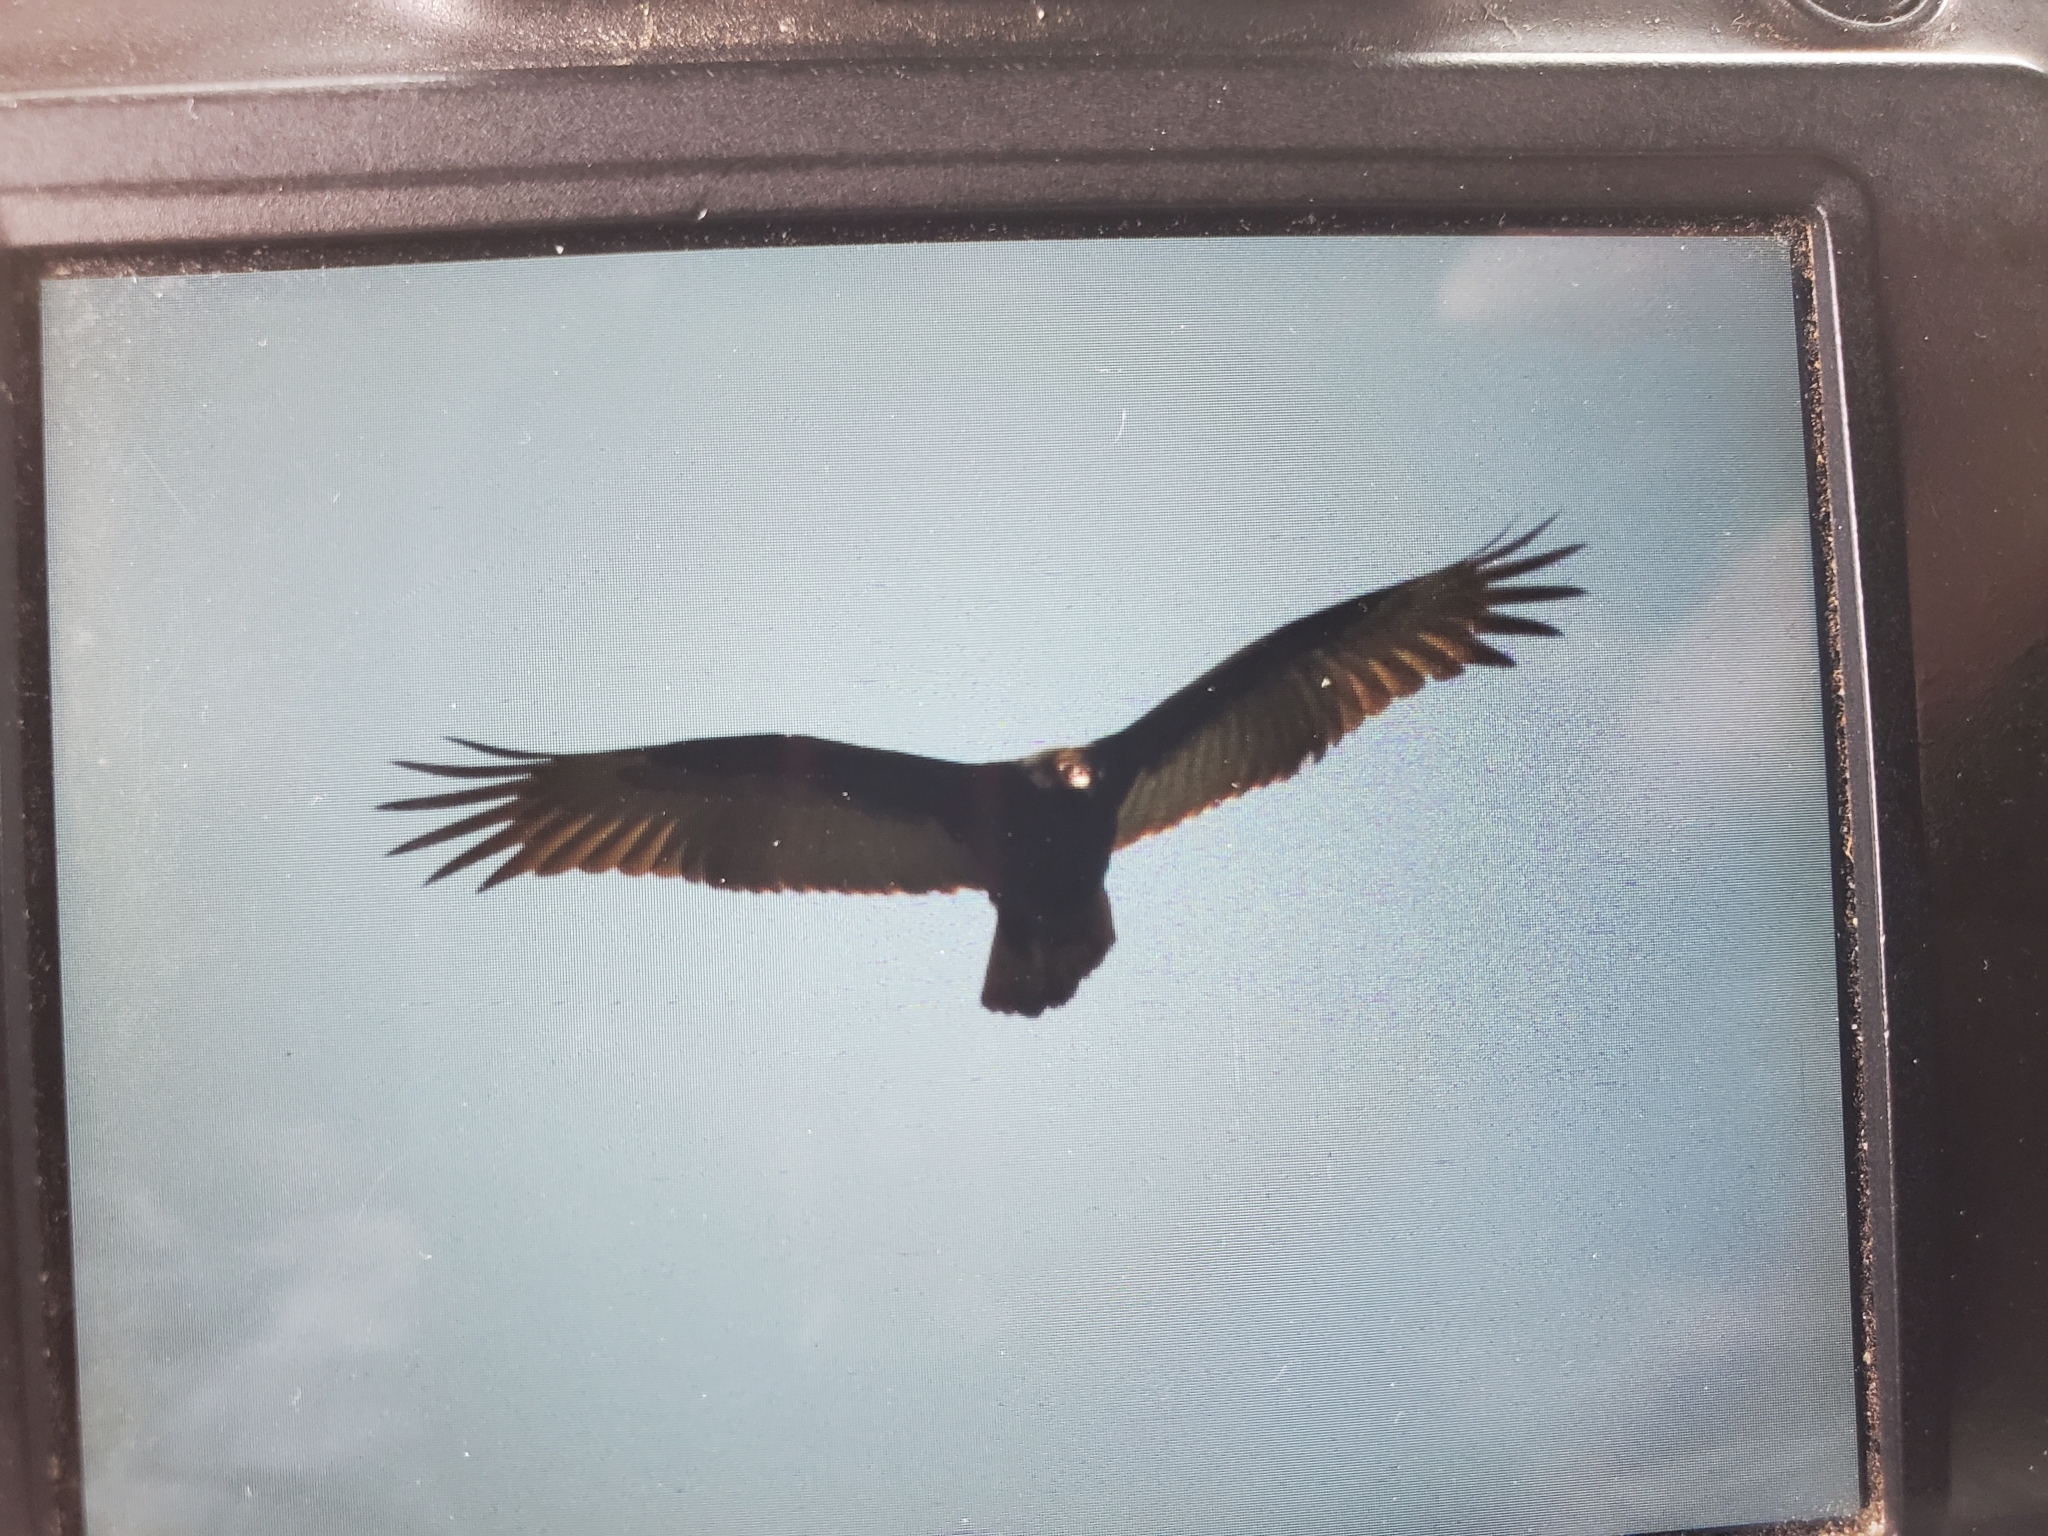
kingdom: Animalia
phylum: Chordata
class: Aves
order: Accipitriformes
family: Cathartidae
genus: Cathartes
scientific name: Cathartes aura
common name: Turkey vulture
